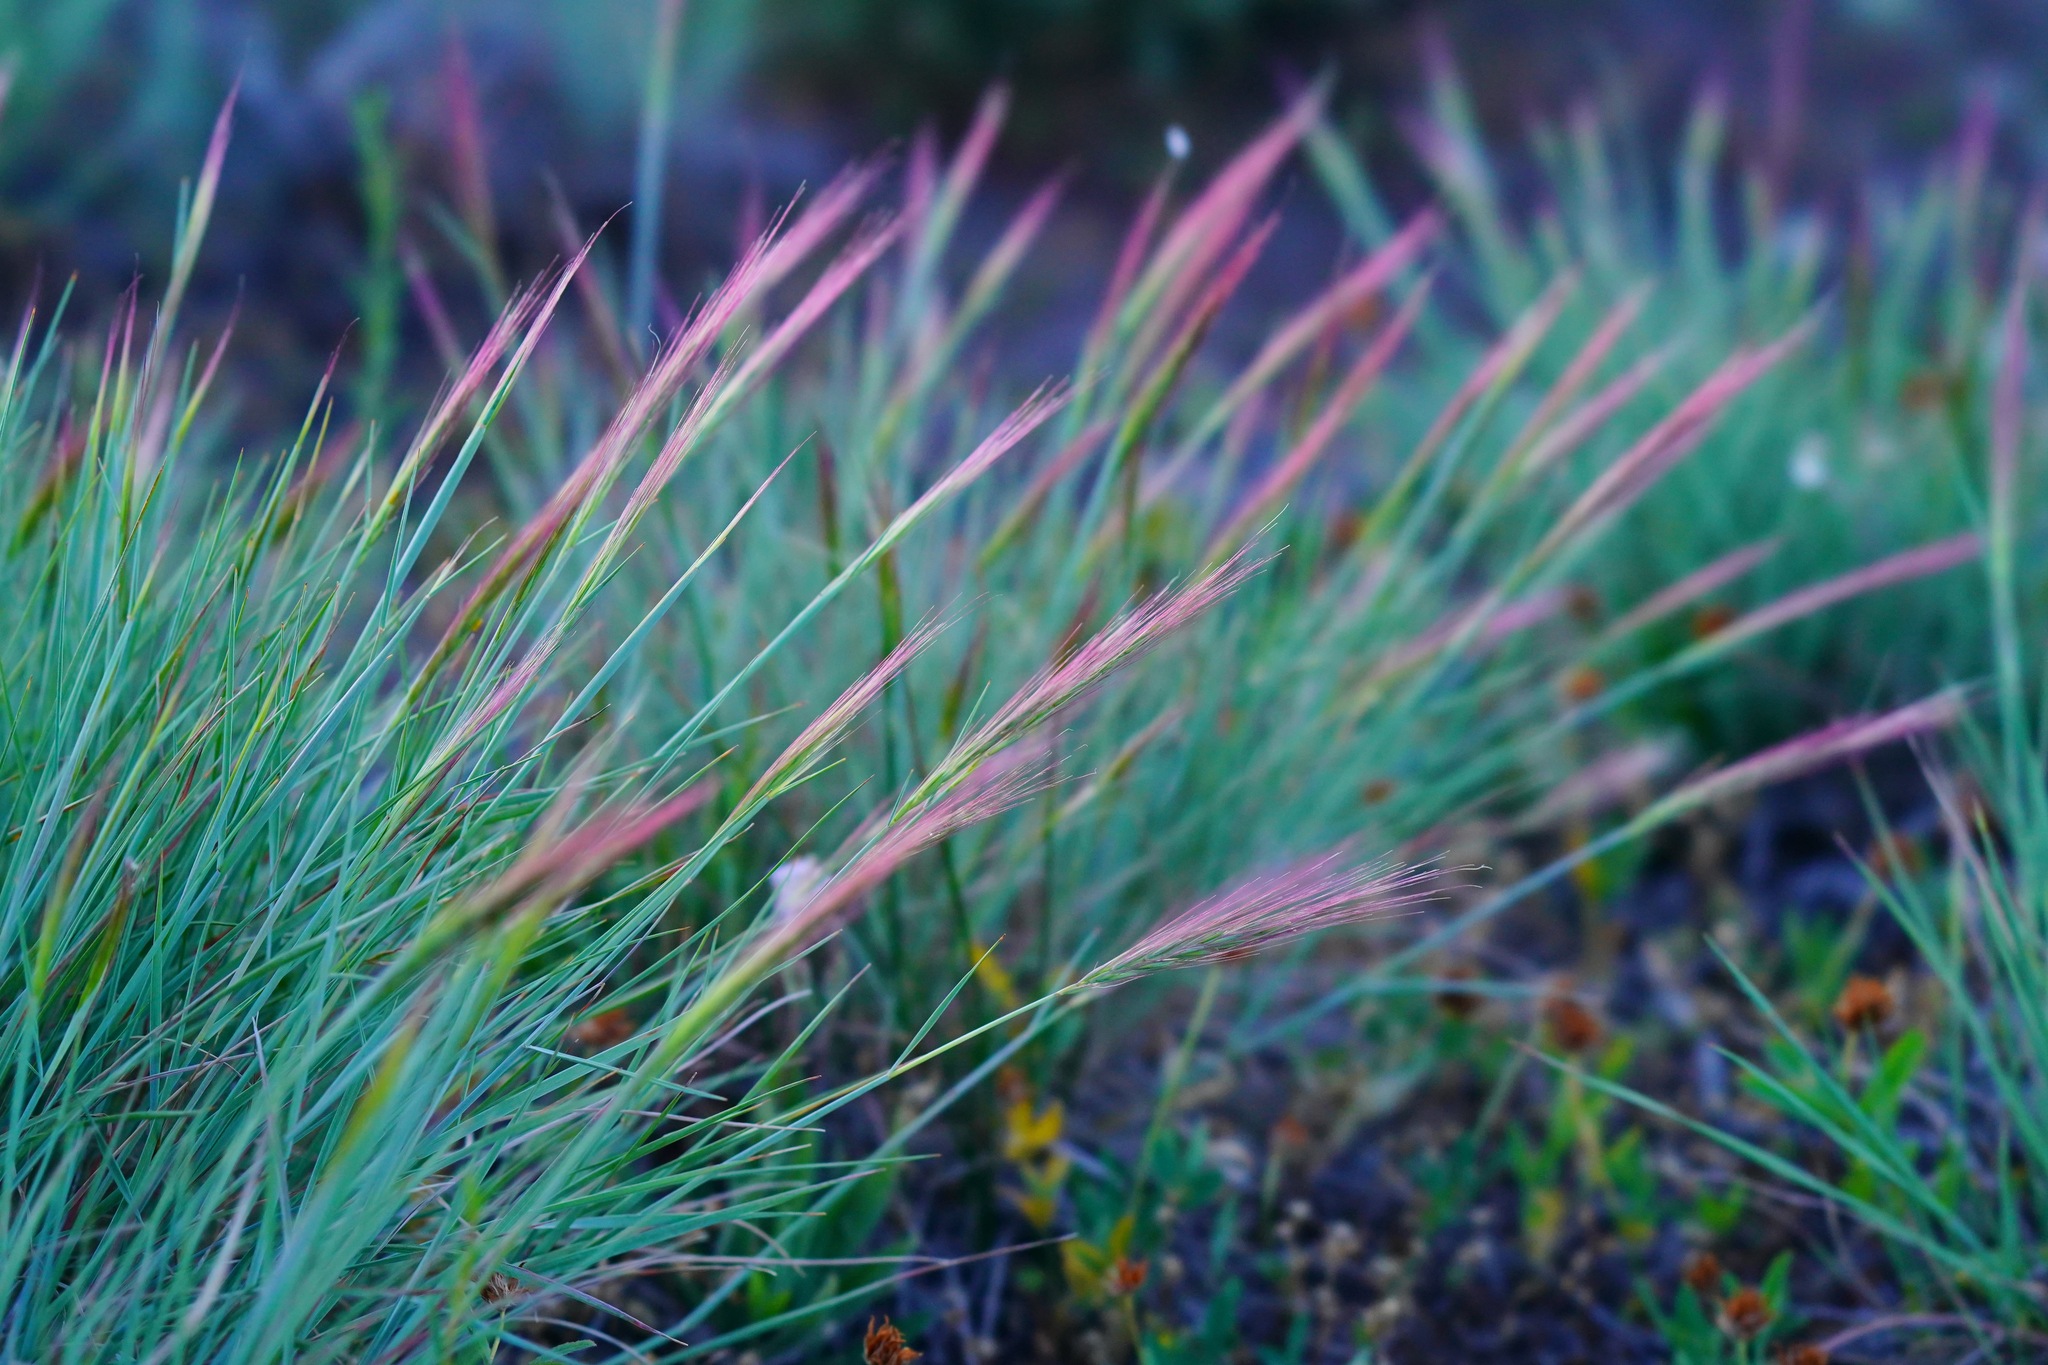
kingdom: Plantae
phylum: Tracheophyta
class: Liliopsida
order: Poales
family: Poaceae
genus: Elymus
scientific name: Elymus elymoides
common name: Bottlebrush squirreltail
